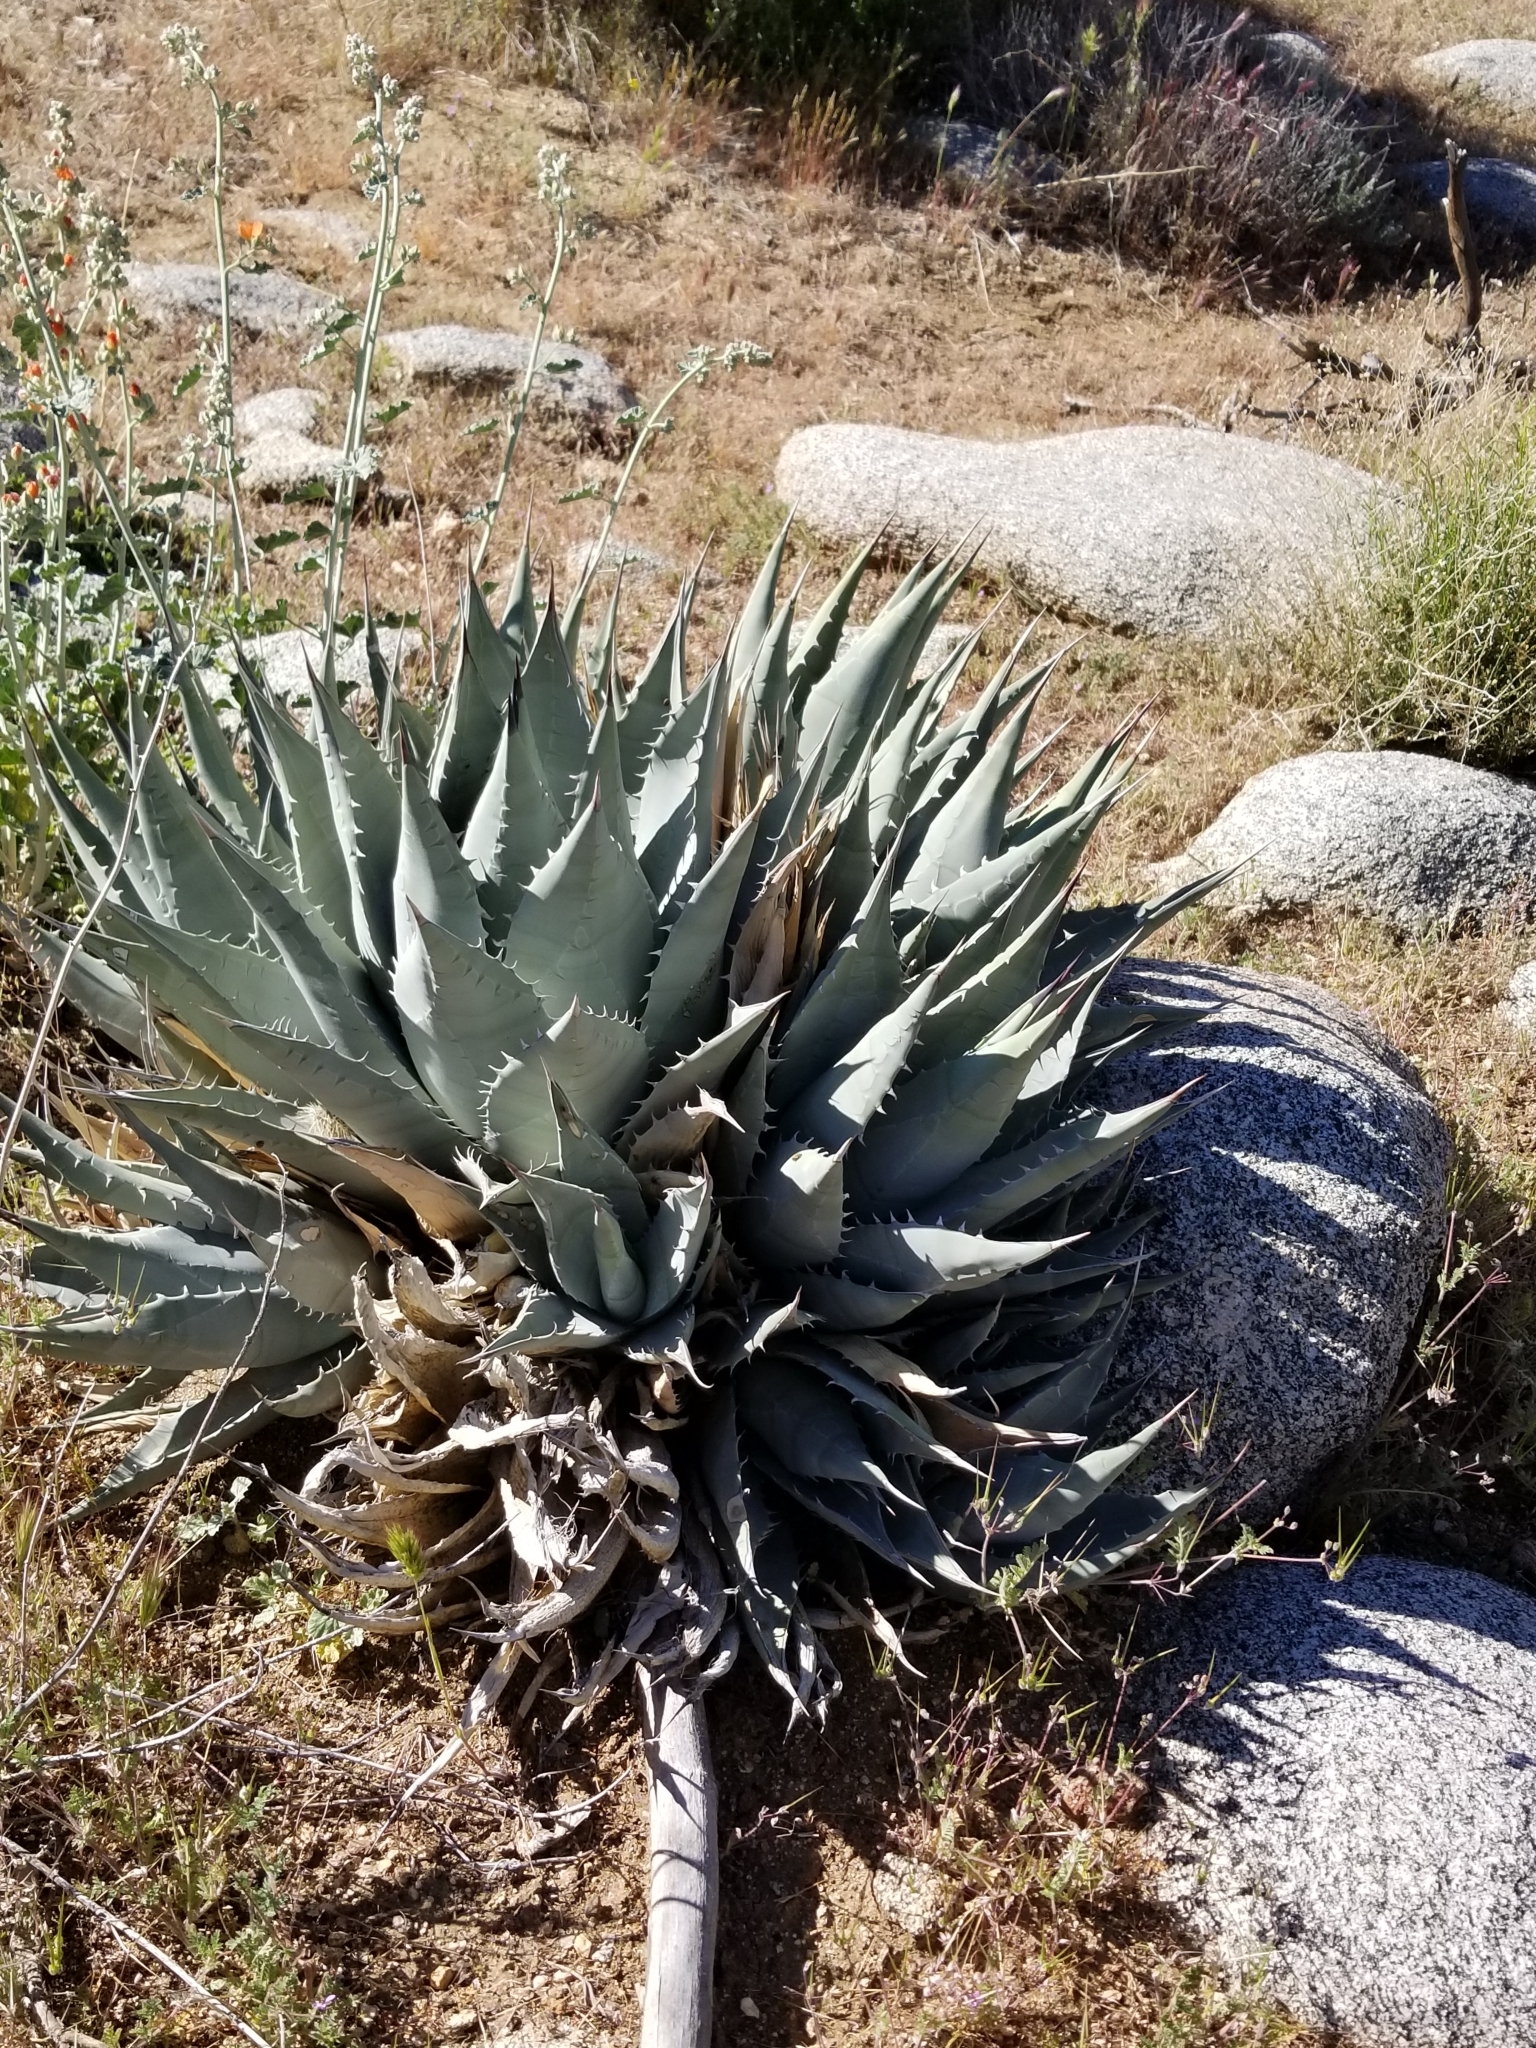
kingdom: Plantae
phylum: Tracheophyta
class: Liliopsida
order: Asparagales
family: Asparagaceae
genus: Agave
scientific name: Agave deserti
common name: Desert agave
